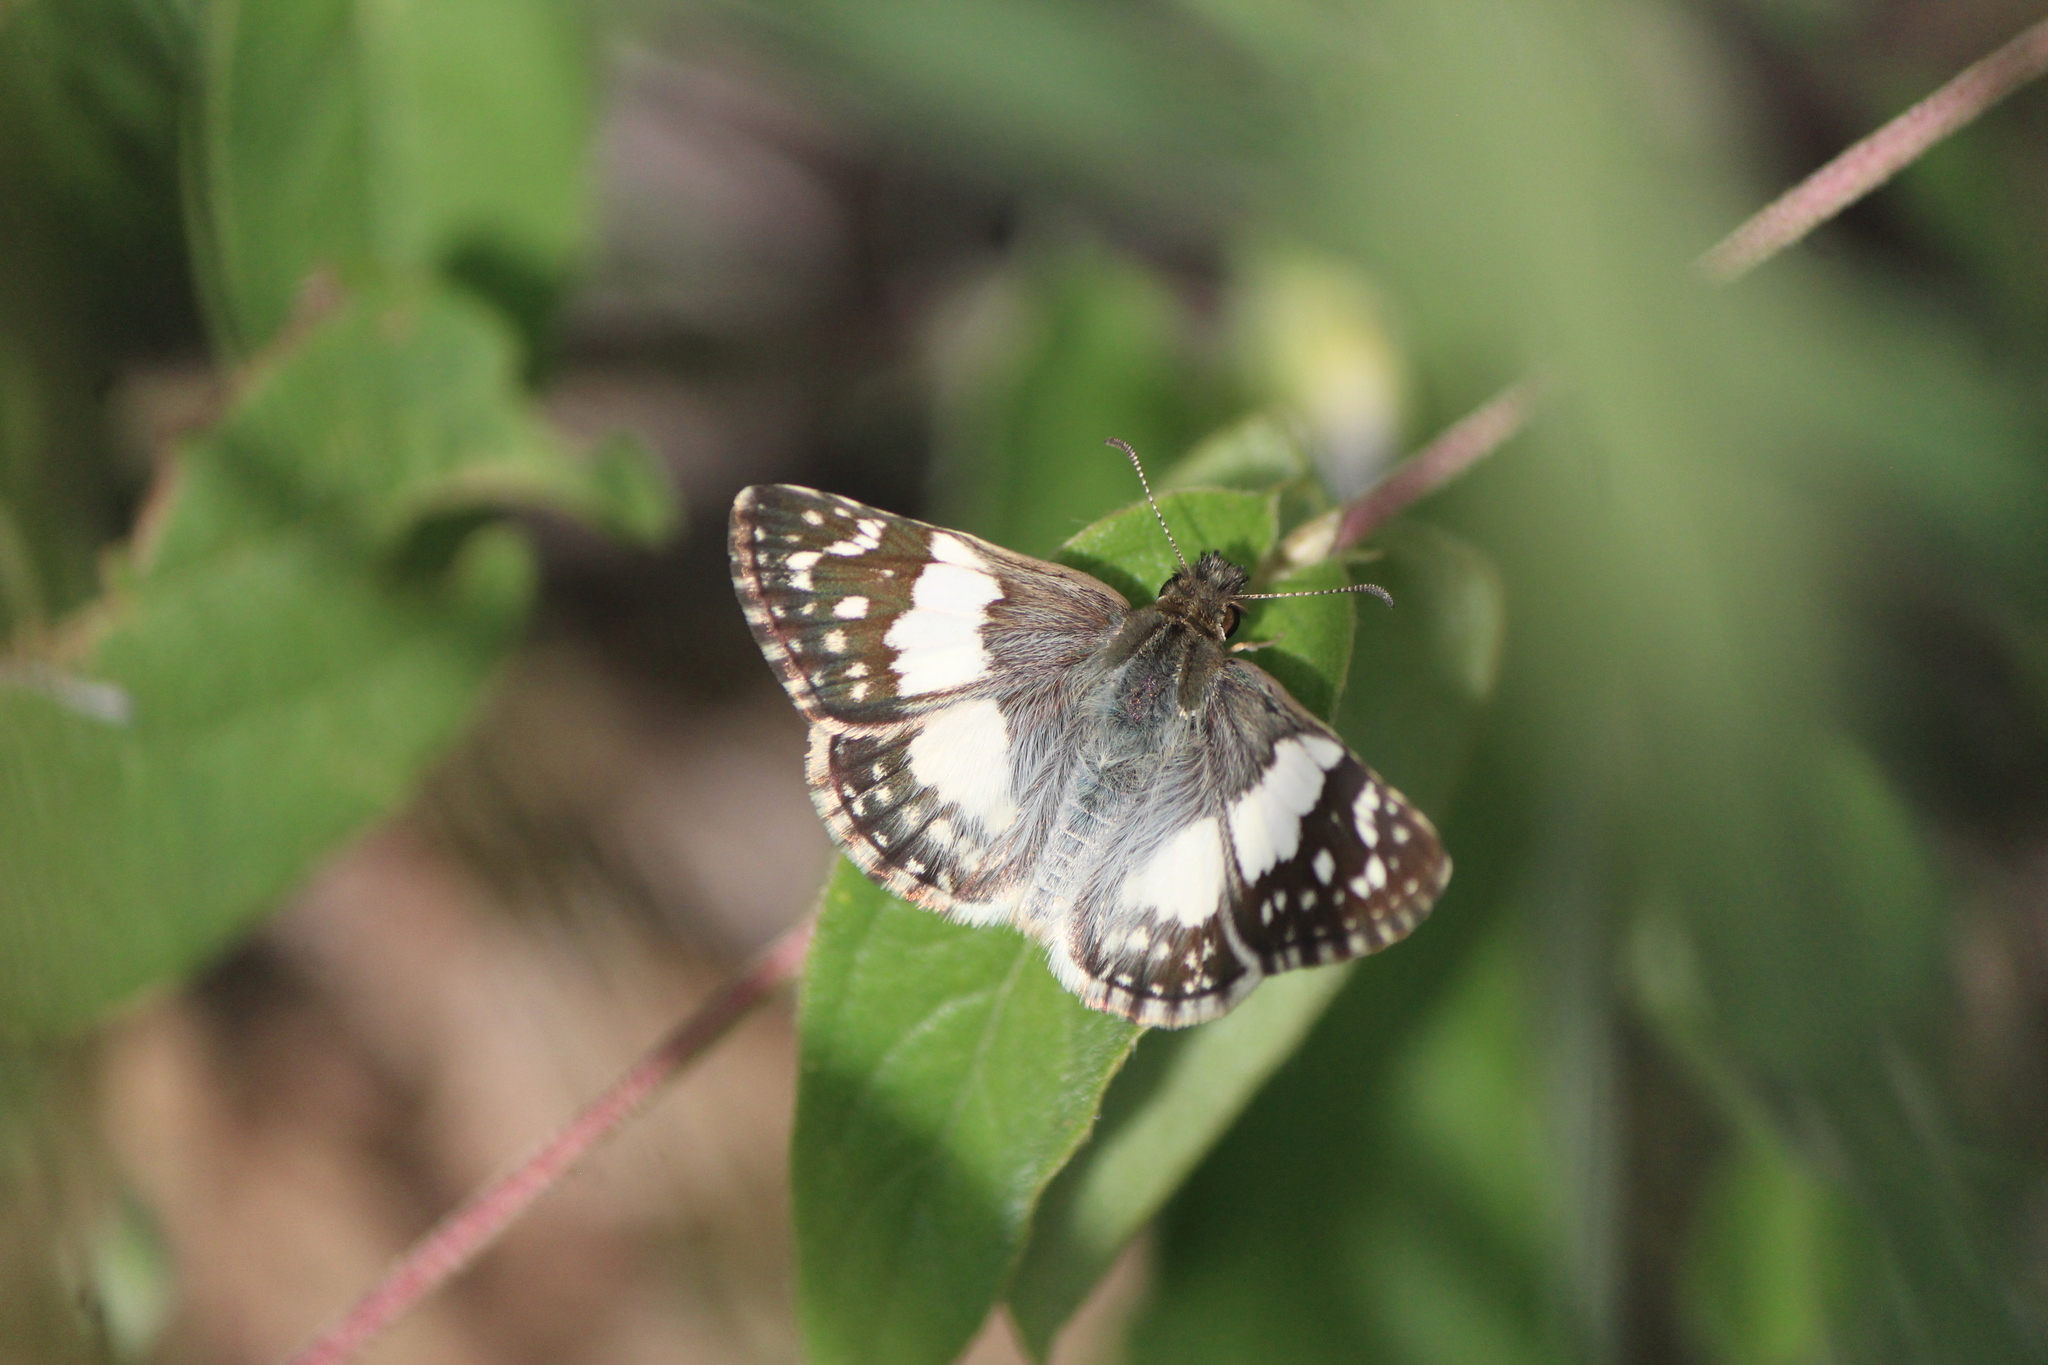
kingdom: Animalia
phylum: Arthropoda
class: Insecta
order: Lepidoptera
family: Hesperiidae
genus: Heliopyrgus
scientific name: Heliopyrgus domicella
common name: Erichson's white skipper
